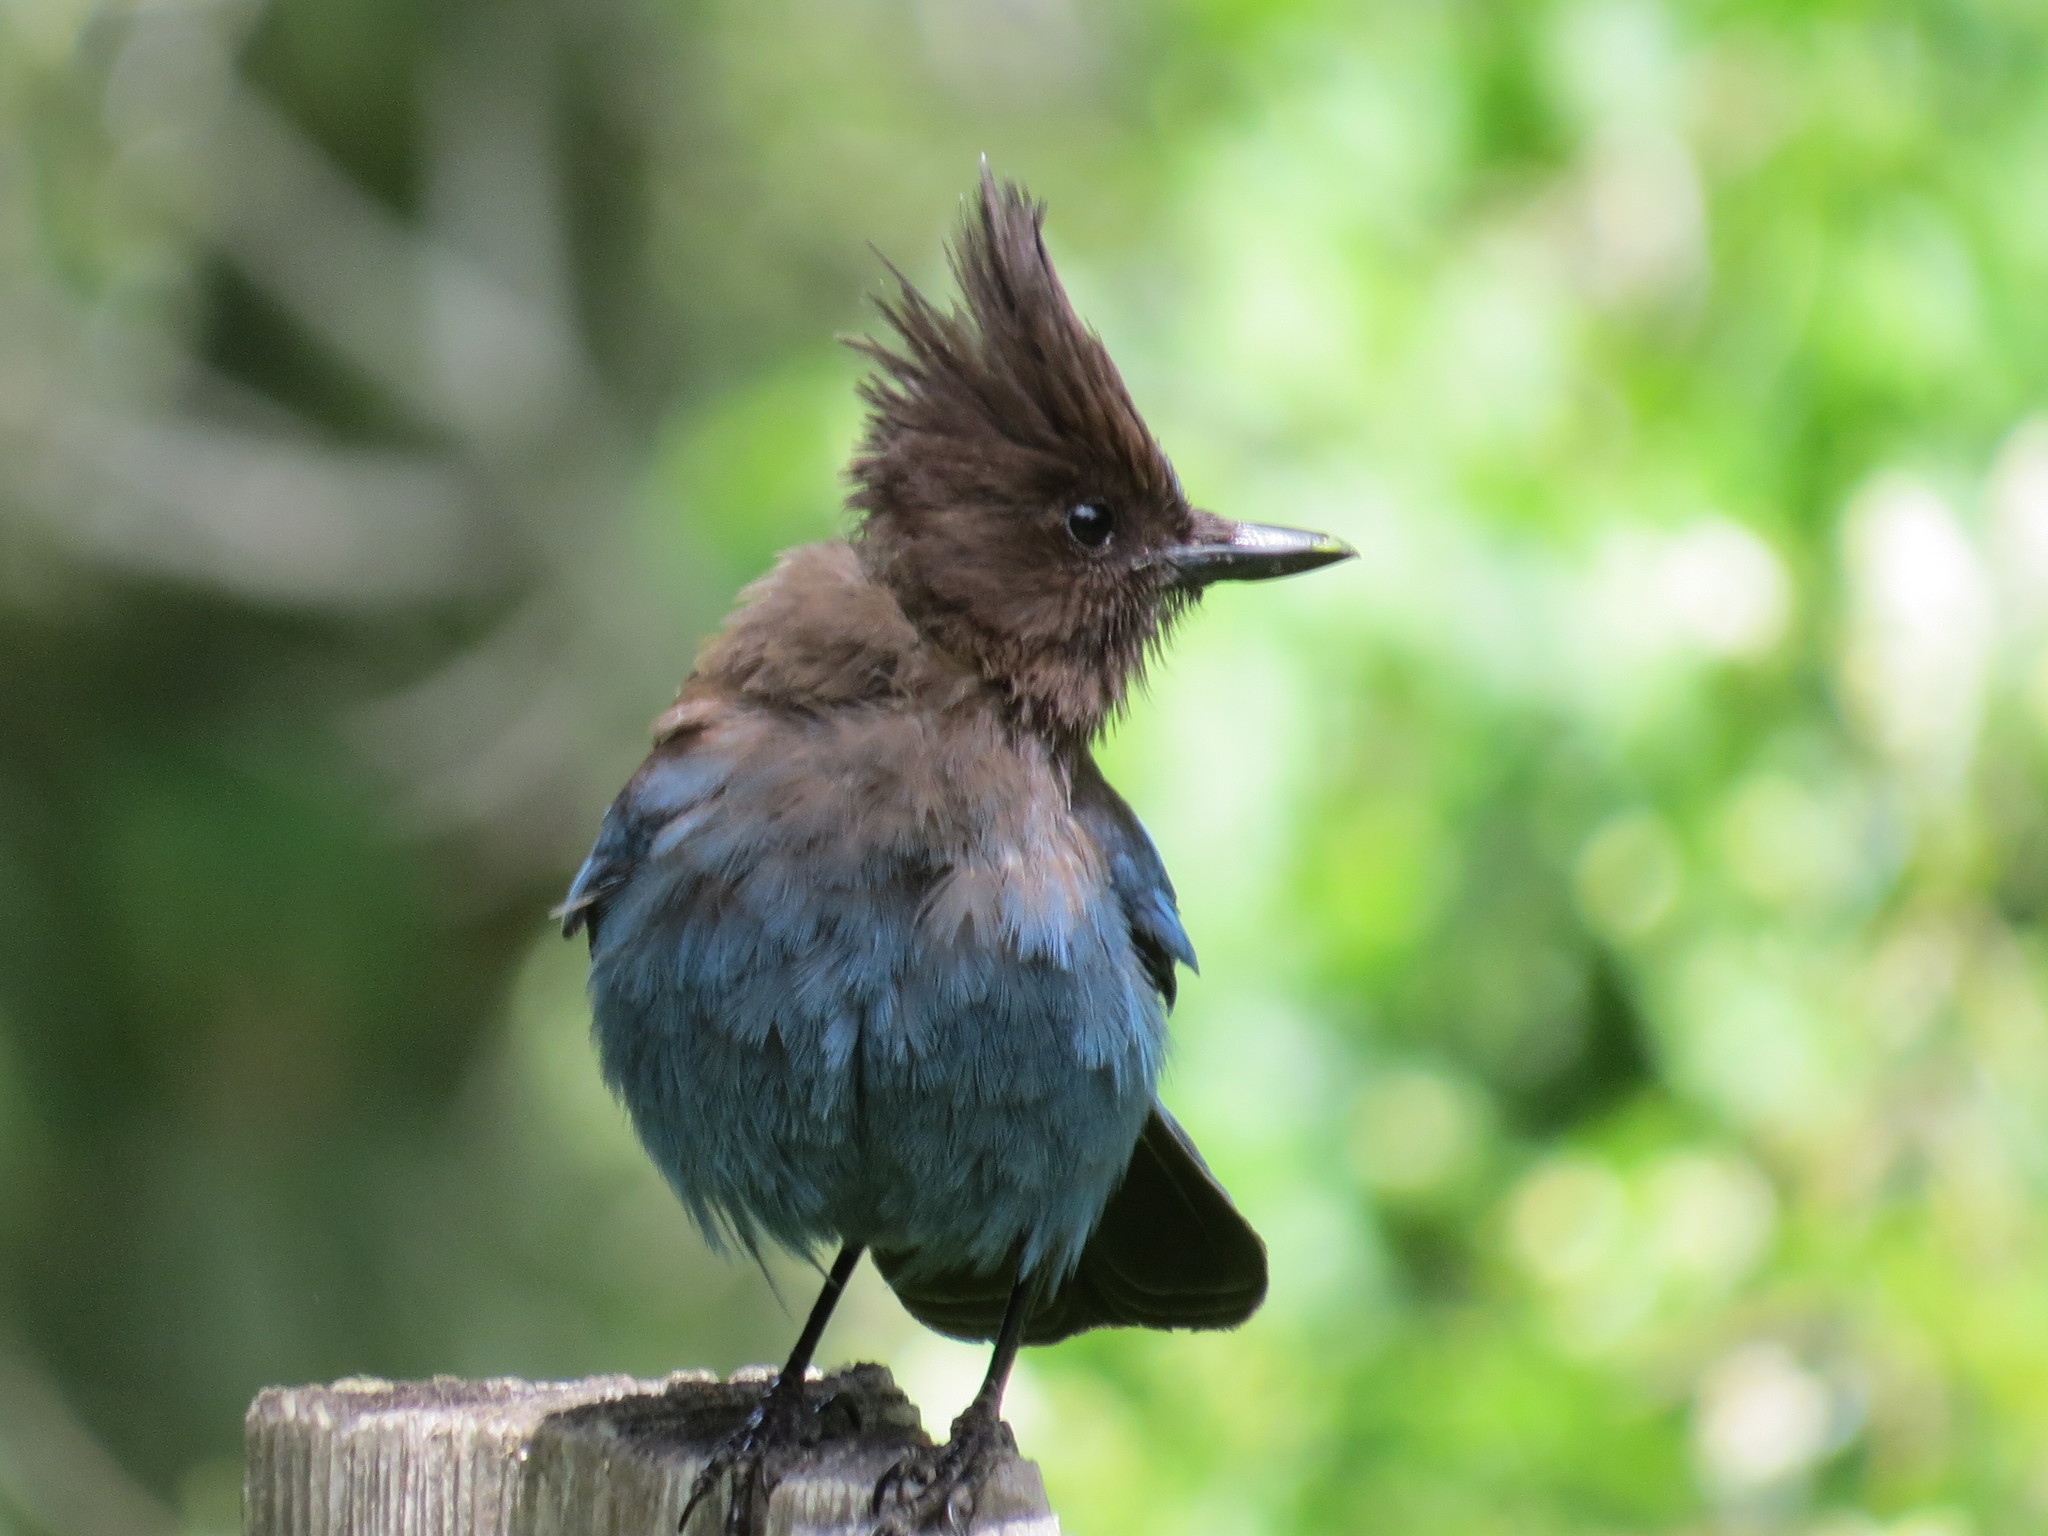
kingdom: Animalia
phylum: Chordata
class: Aves
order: Passeriformes
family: Corvidae
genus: Cyanocitta
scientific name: Cyanocitta stelleri
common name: Steller's jay
